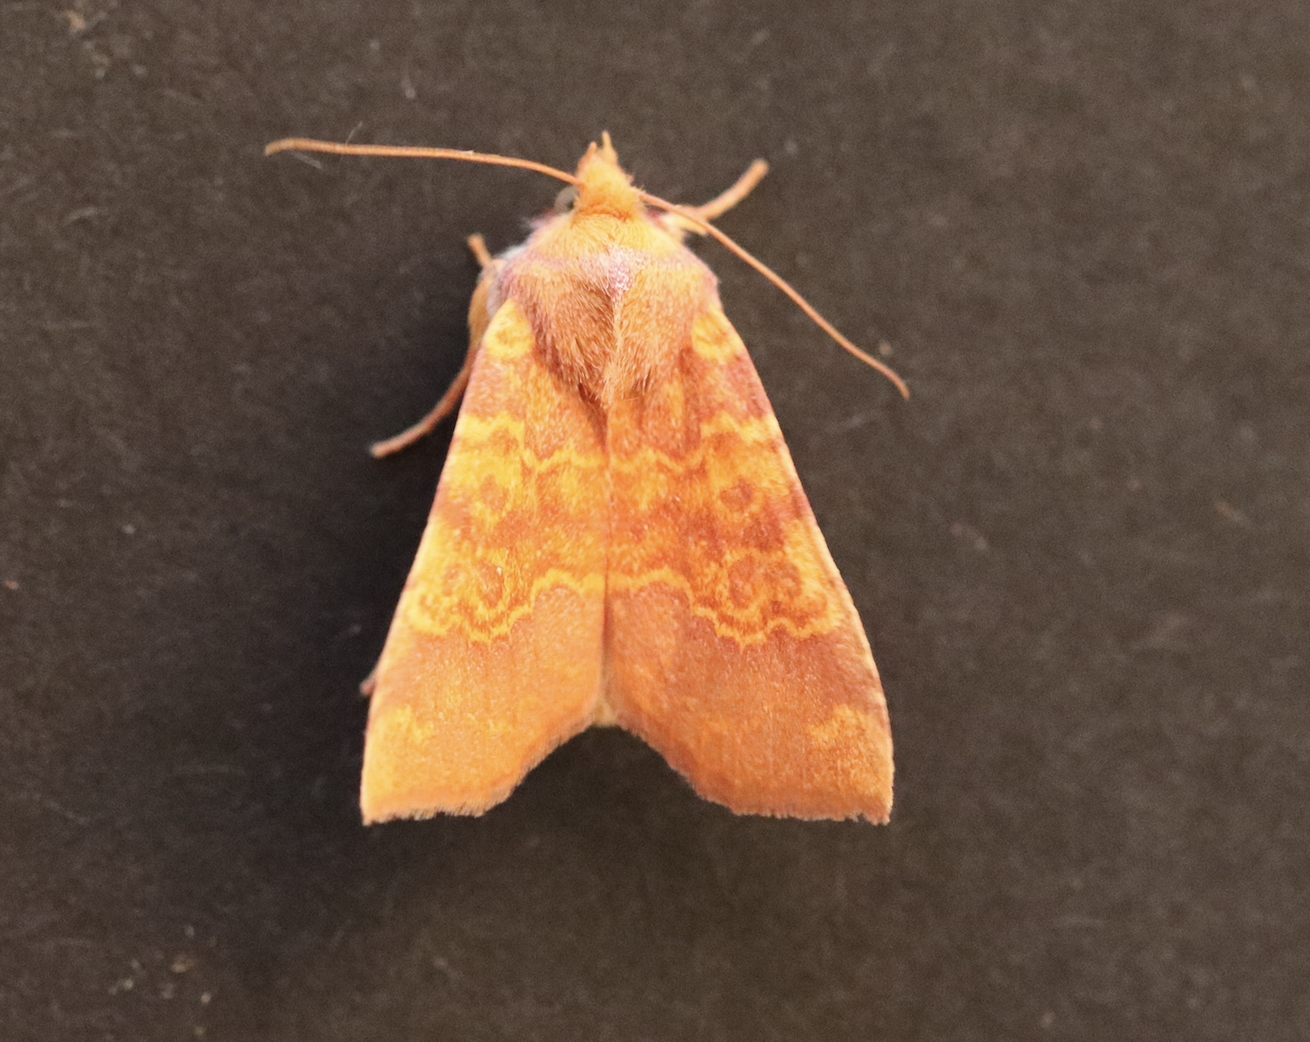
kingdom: Animalia
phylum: Arthropoda
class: Insecta
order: Lepidoptera
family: Noctuidae
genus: Tiliacea
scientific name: Tiliacea aurago
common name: Barred sallow
